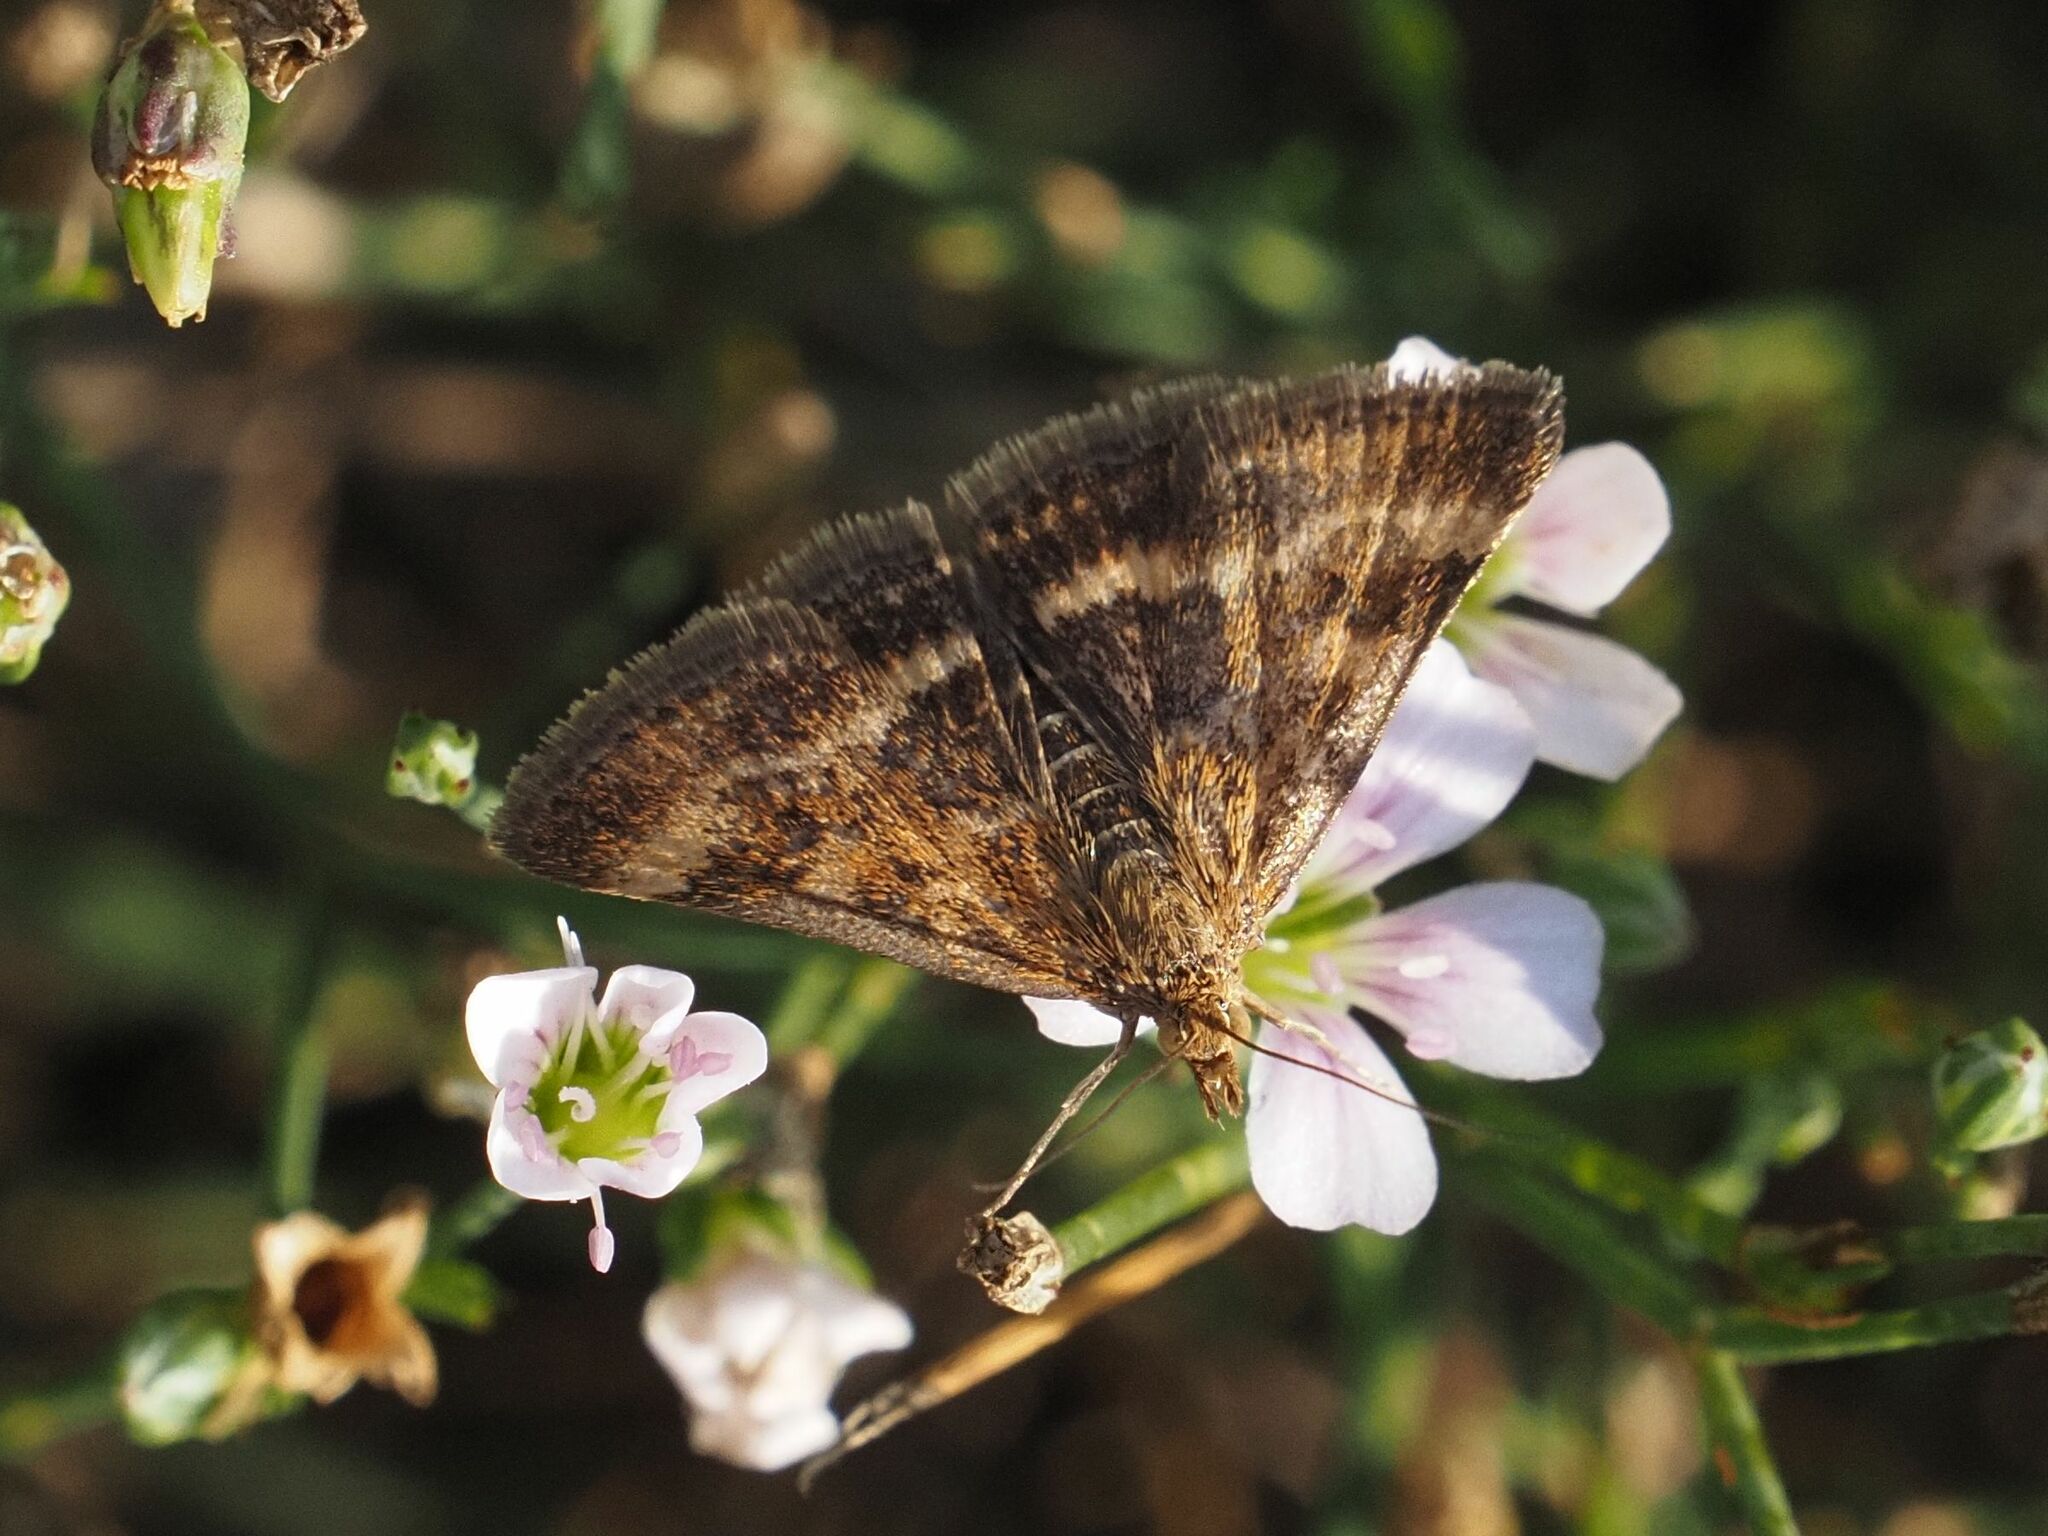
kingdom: Animalia
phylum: Arthropoda
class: Insecta
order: Lepidoptera
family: Crambidae
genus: Pyrausta
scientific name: Pyrausta despicata
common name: Straw-barred pearl
